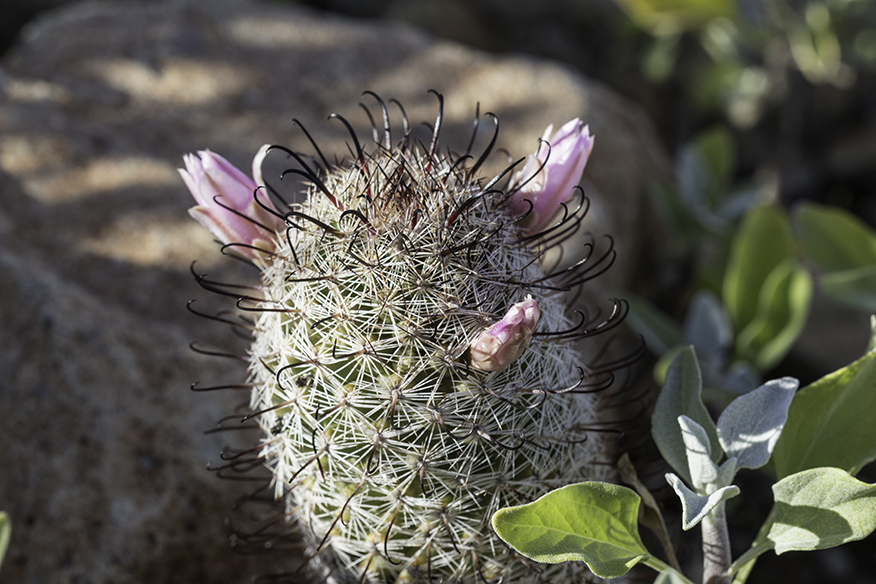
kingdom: Plantae
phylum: Tracheophyta
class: Magnoliopsida
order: Caryophyllales
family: Cactaceae
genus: Cochemiea
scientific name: Cochemiea grahamii
